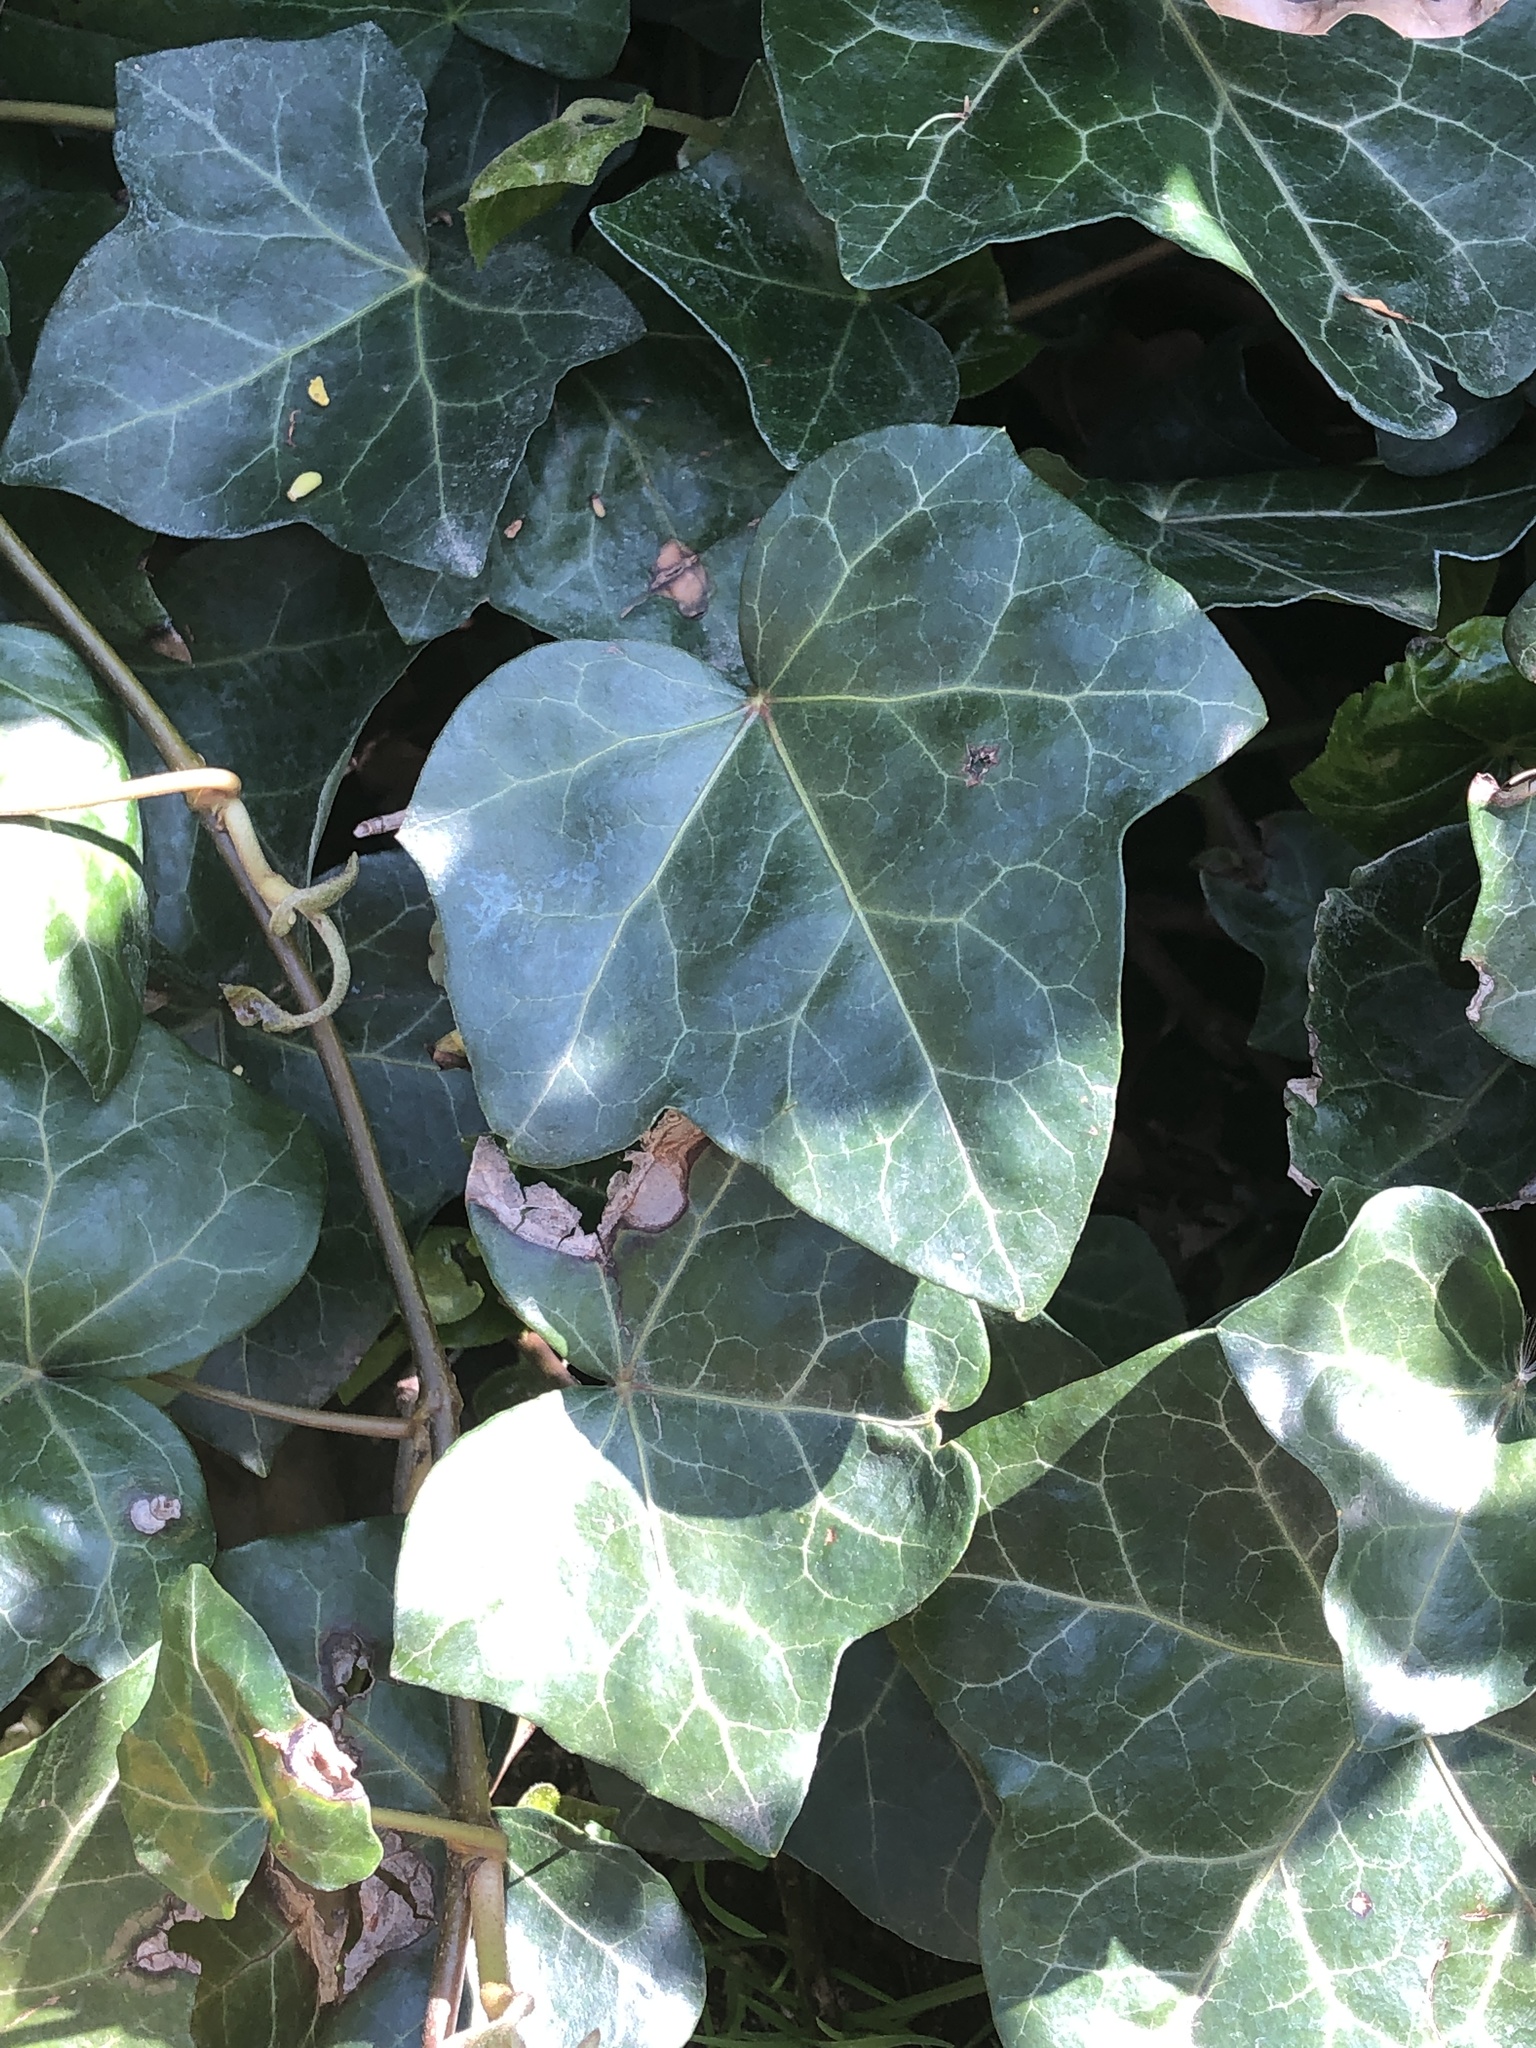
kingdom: Plantae
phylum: Tracheophyta
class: Magnoliopsida
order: Apiales
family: Araliaceae
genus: Hedera
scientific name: Hedera helix
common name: Ivy
